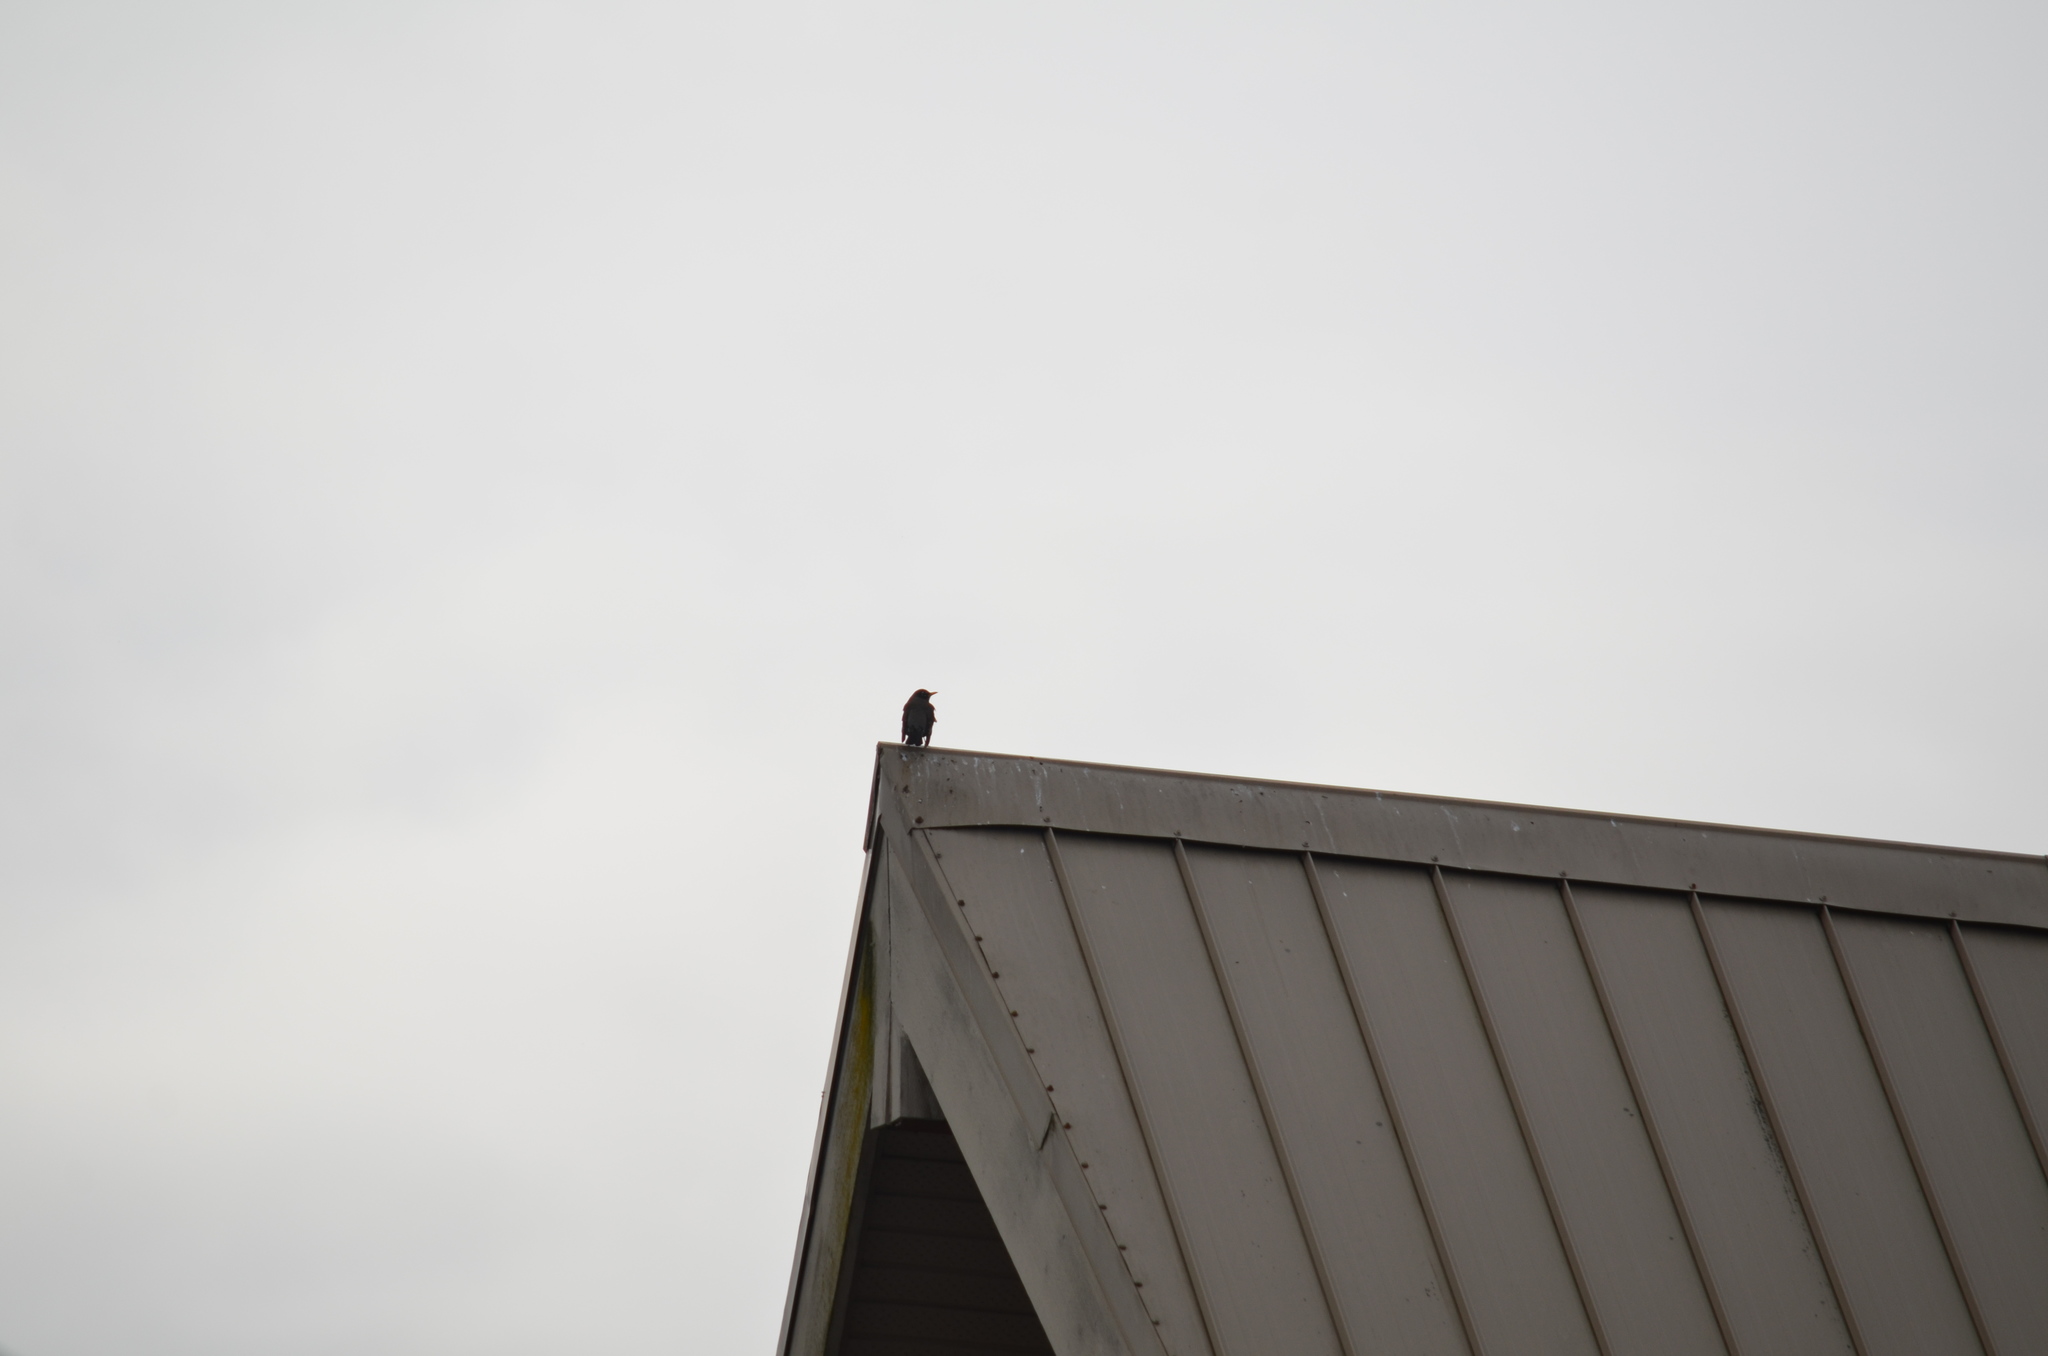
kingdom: Animalia
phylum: Chordata
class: Aves
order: Passeriformes
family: Sturnidae
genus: Sturnus
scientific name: Sturnus vulgaris
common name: Common starling
